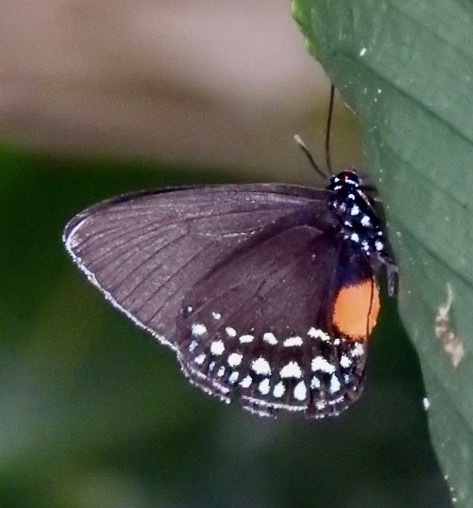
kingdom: Animalia
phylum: Arthropoda
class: Insecta
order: Lepidoptera
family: Lycaenidae
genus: Eumaeus
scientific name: Eumaeus godartii
